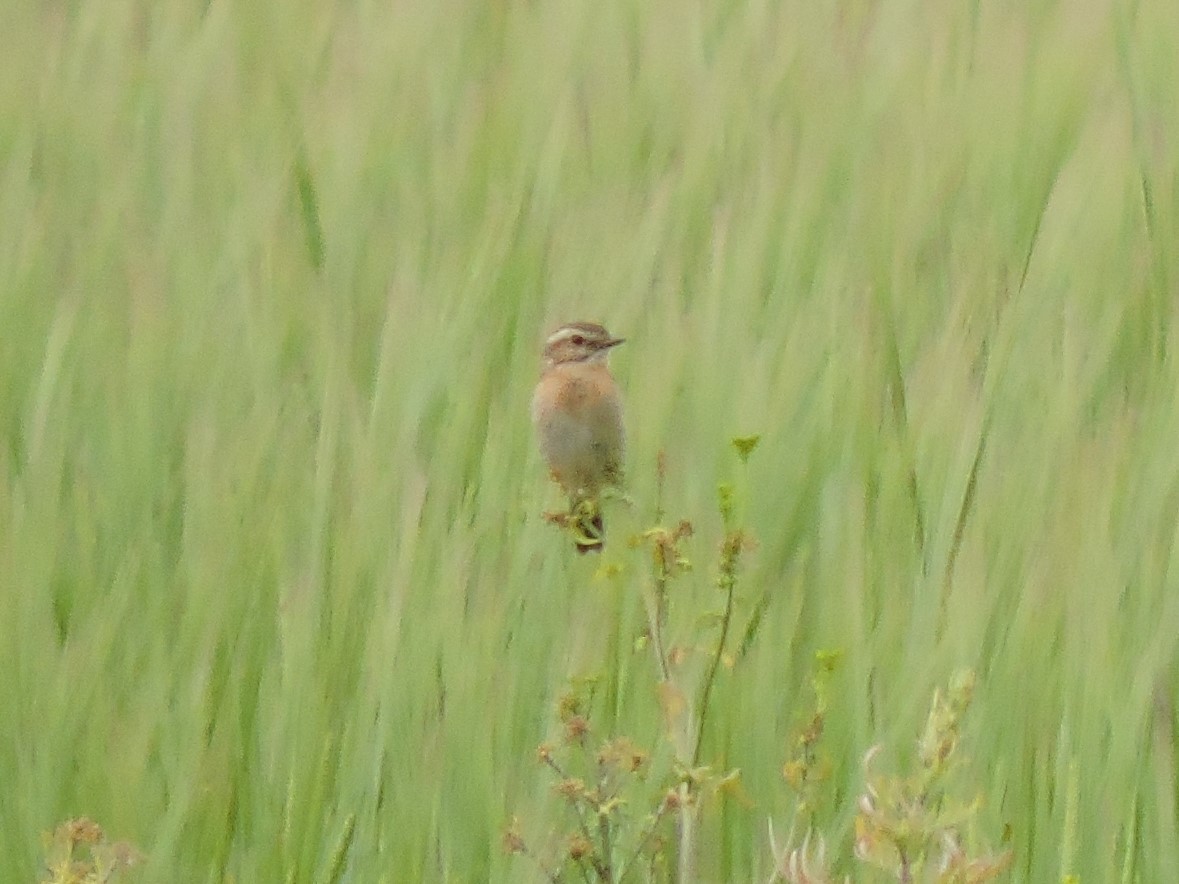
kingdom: Animalia
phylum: Chordata
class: Aves
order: Passeriformes
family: Muscicapidae
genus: Saxicola
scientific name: Saxicola rubetra
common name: Whinchat
